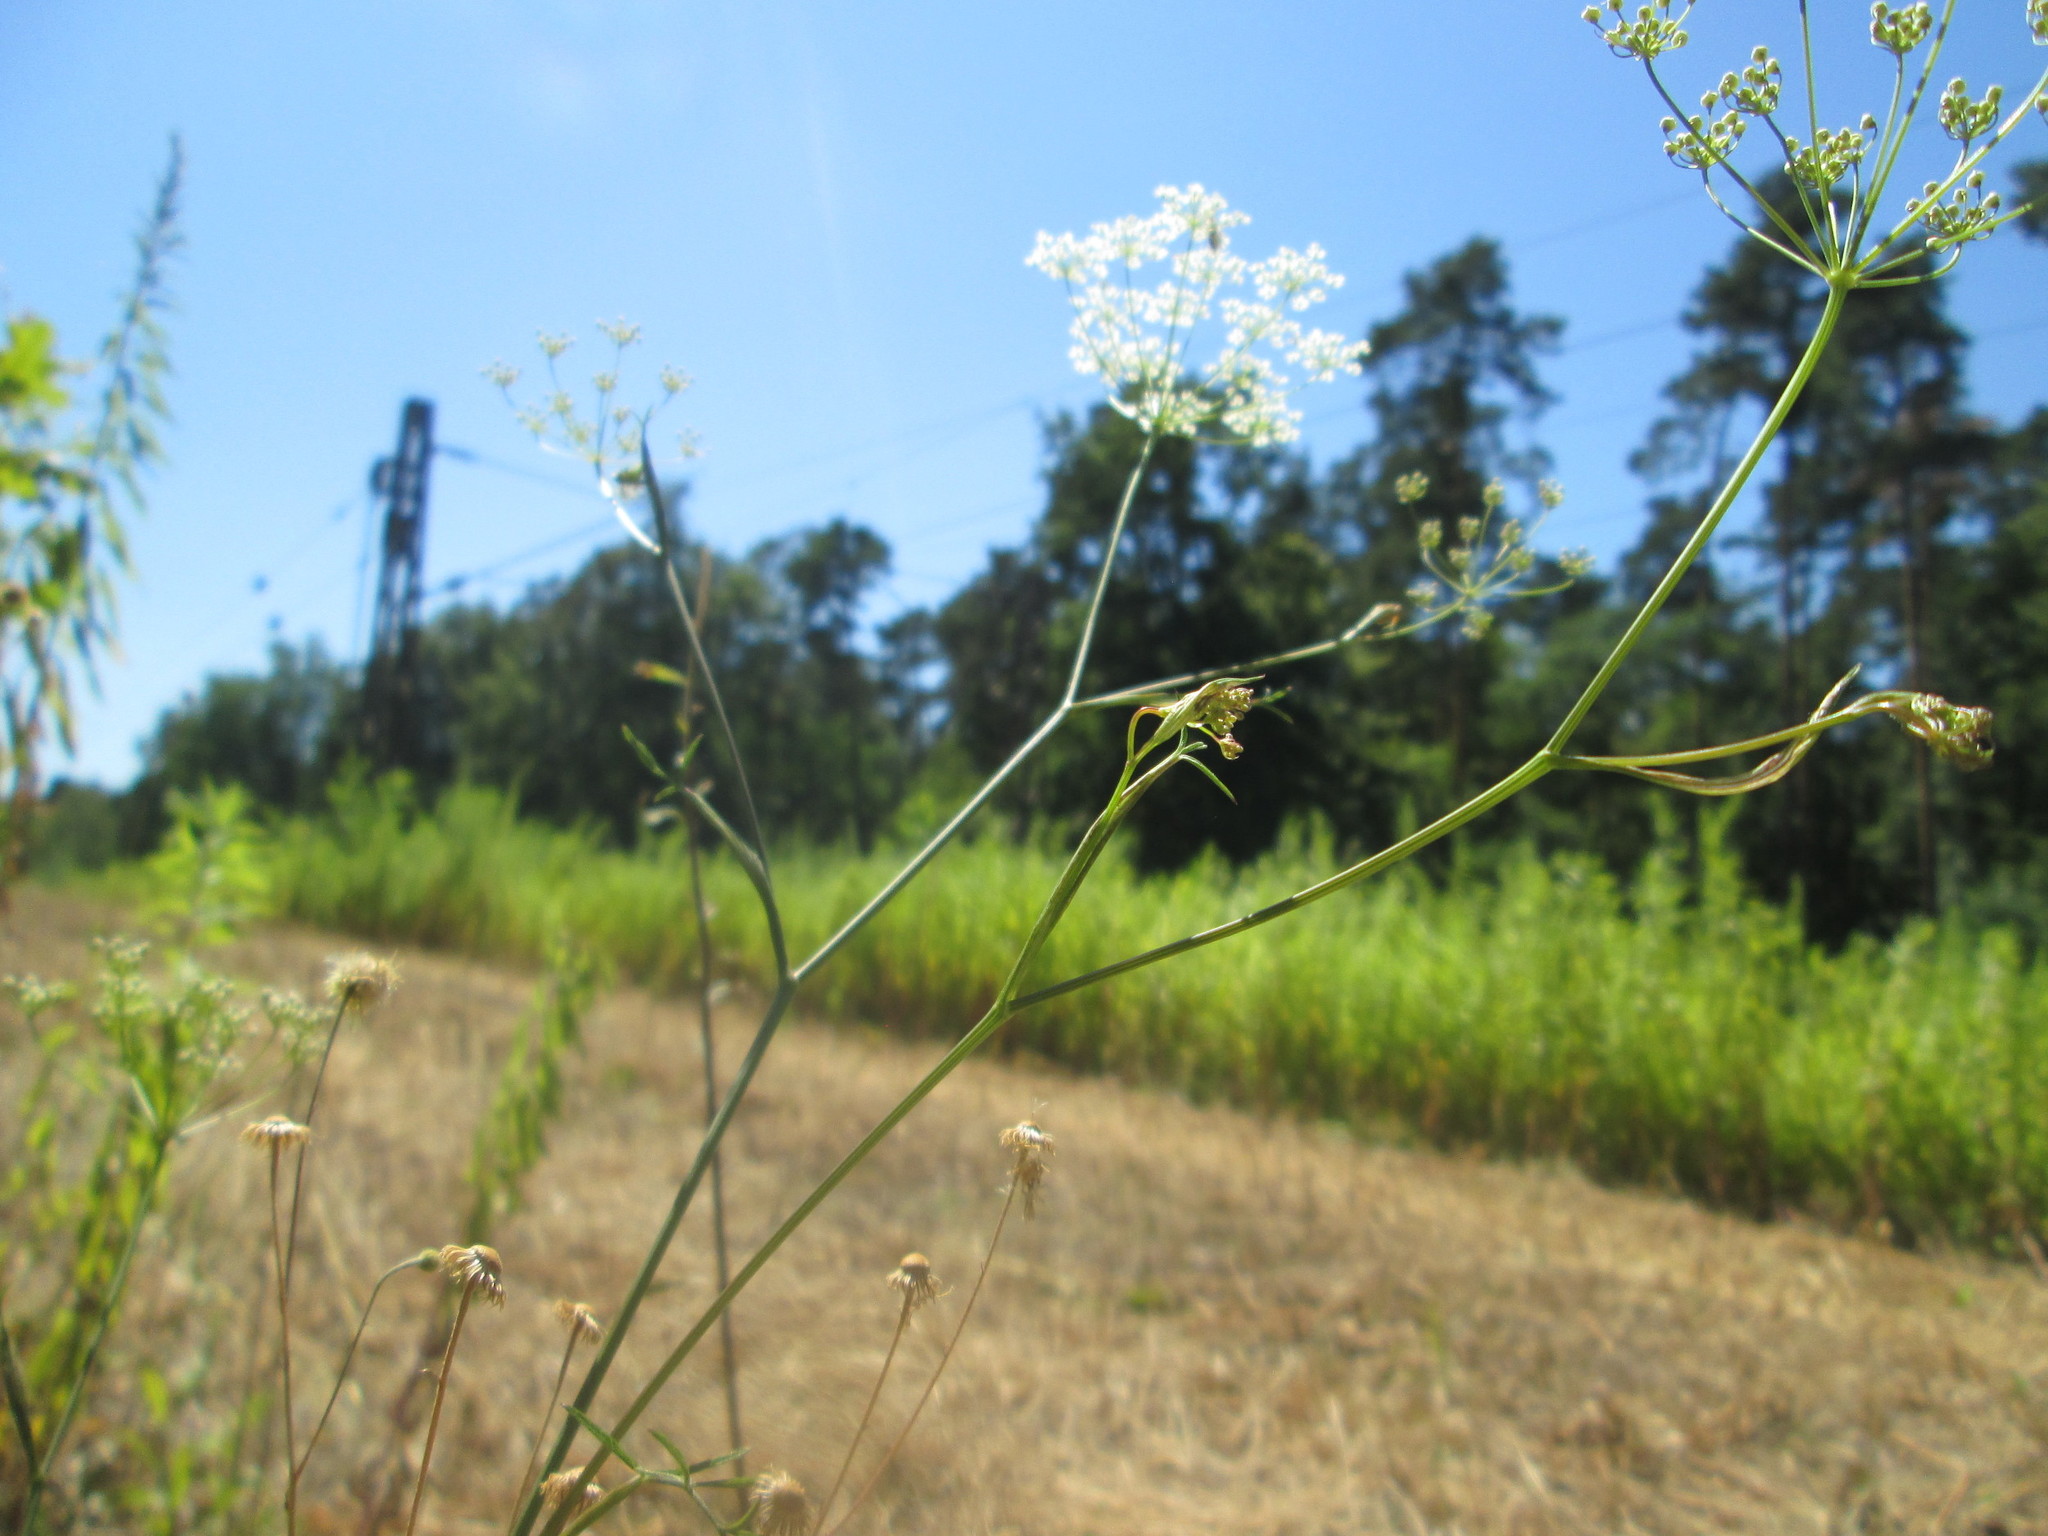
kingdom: Plantae
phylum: Tracheophyta
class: Magnoliopsida
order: Apiales
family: Apiaceae
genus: Oreoselinum
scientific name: Oreoselinum nigrum
